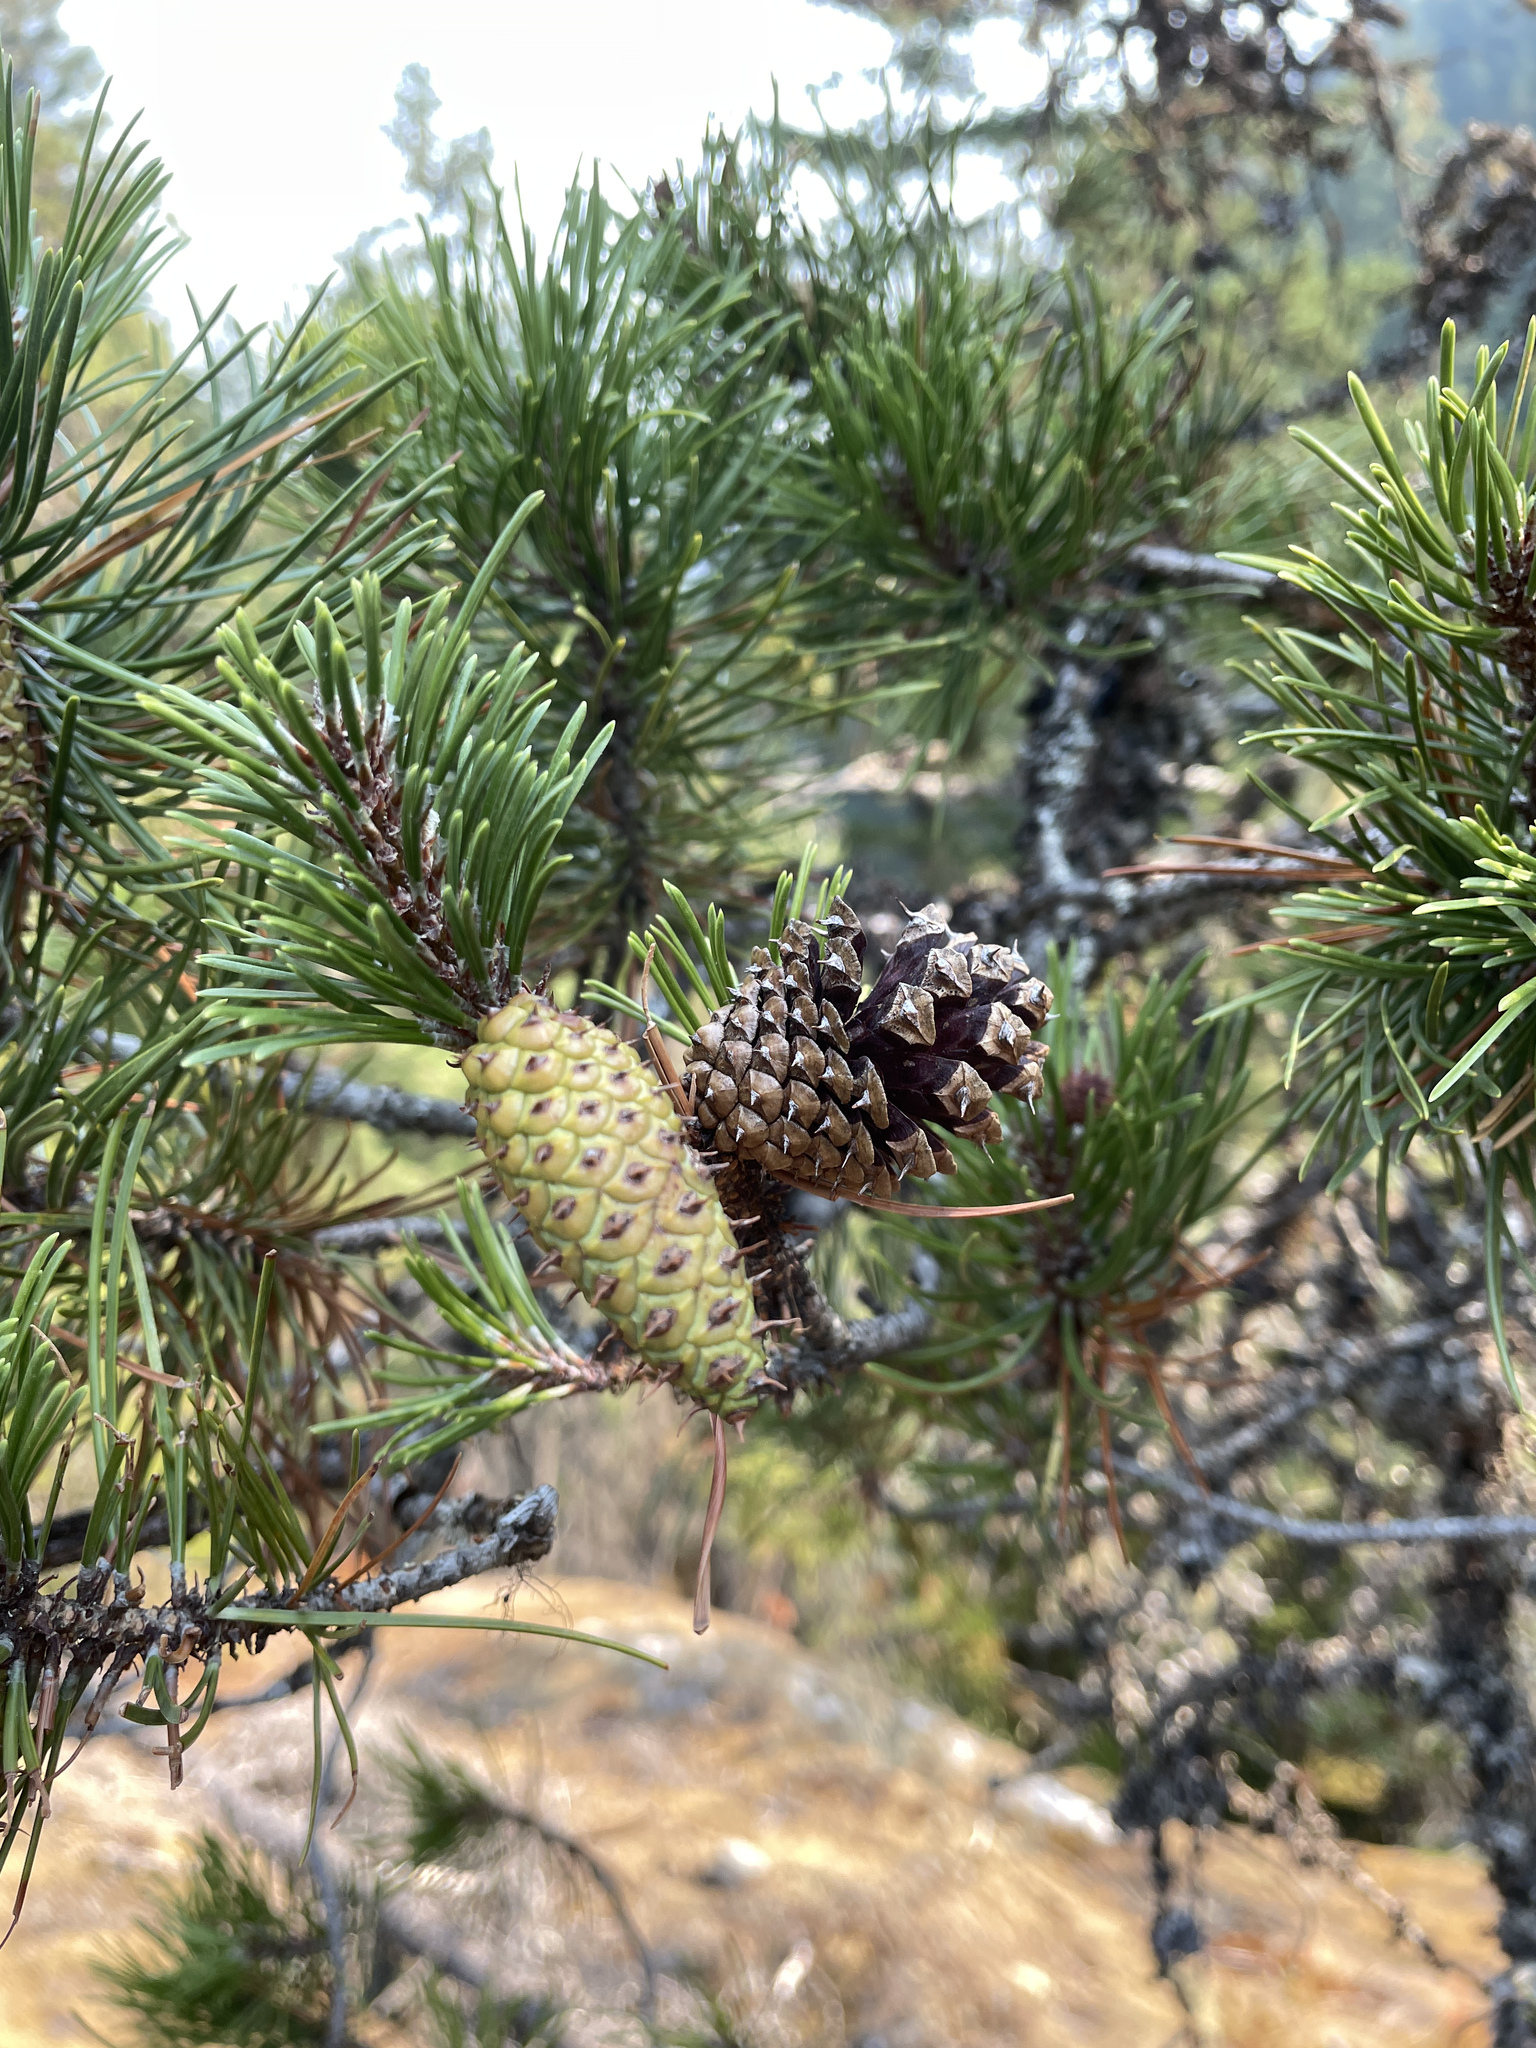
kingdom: Plantae
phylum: Tracheophyta
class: Pinopsida
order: Pinales
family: Pinaceae
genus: Pinus
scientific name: Pinus contorta
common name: Lodgepole pine
